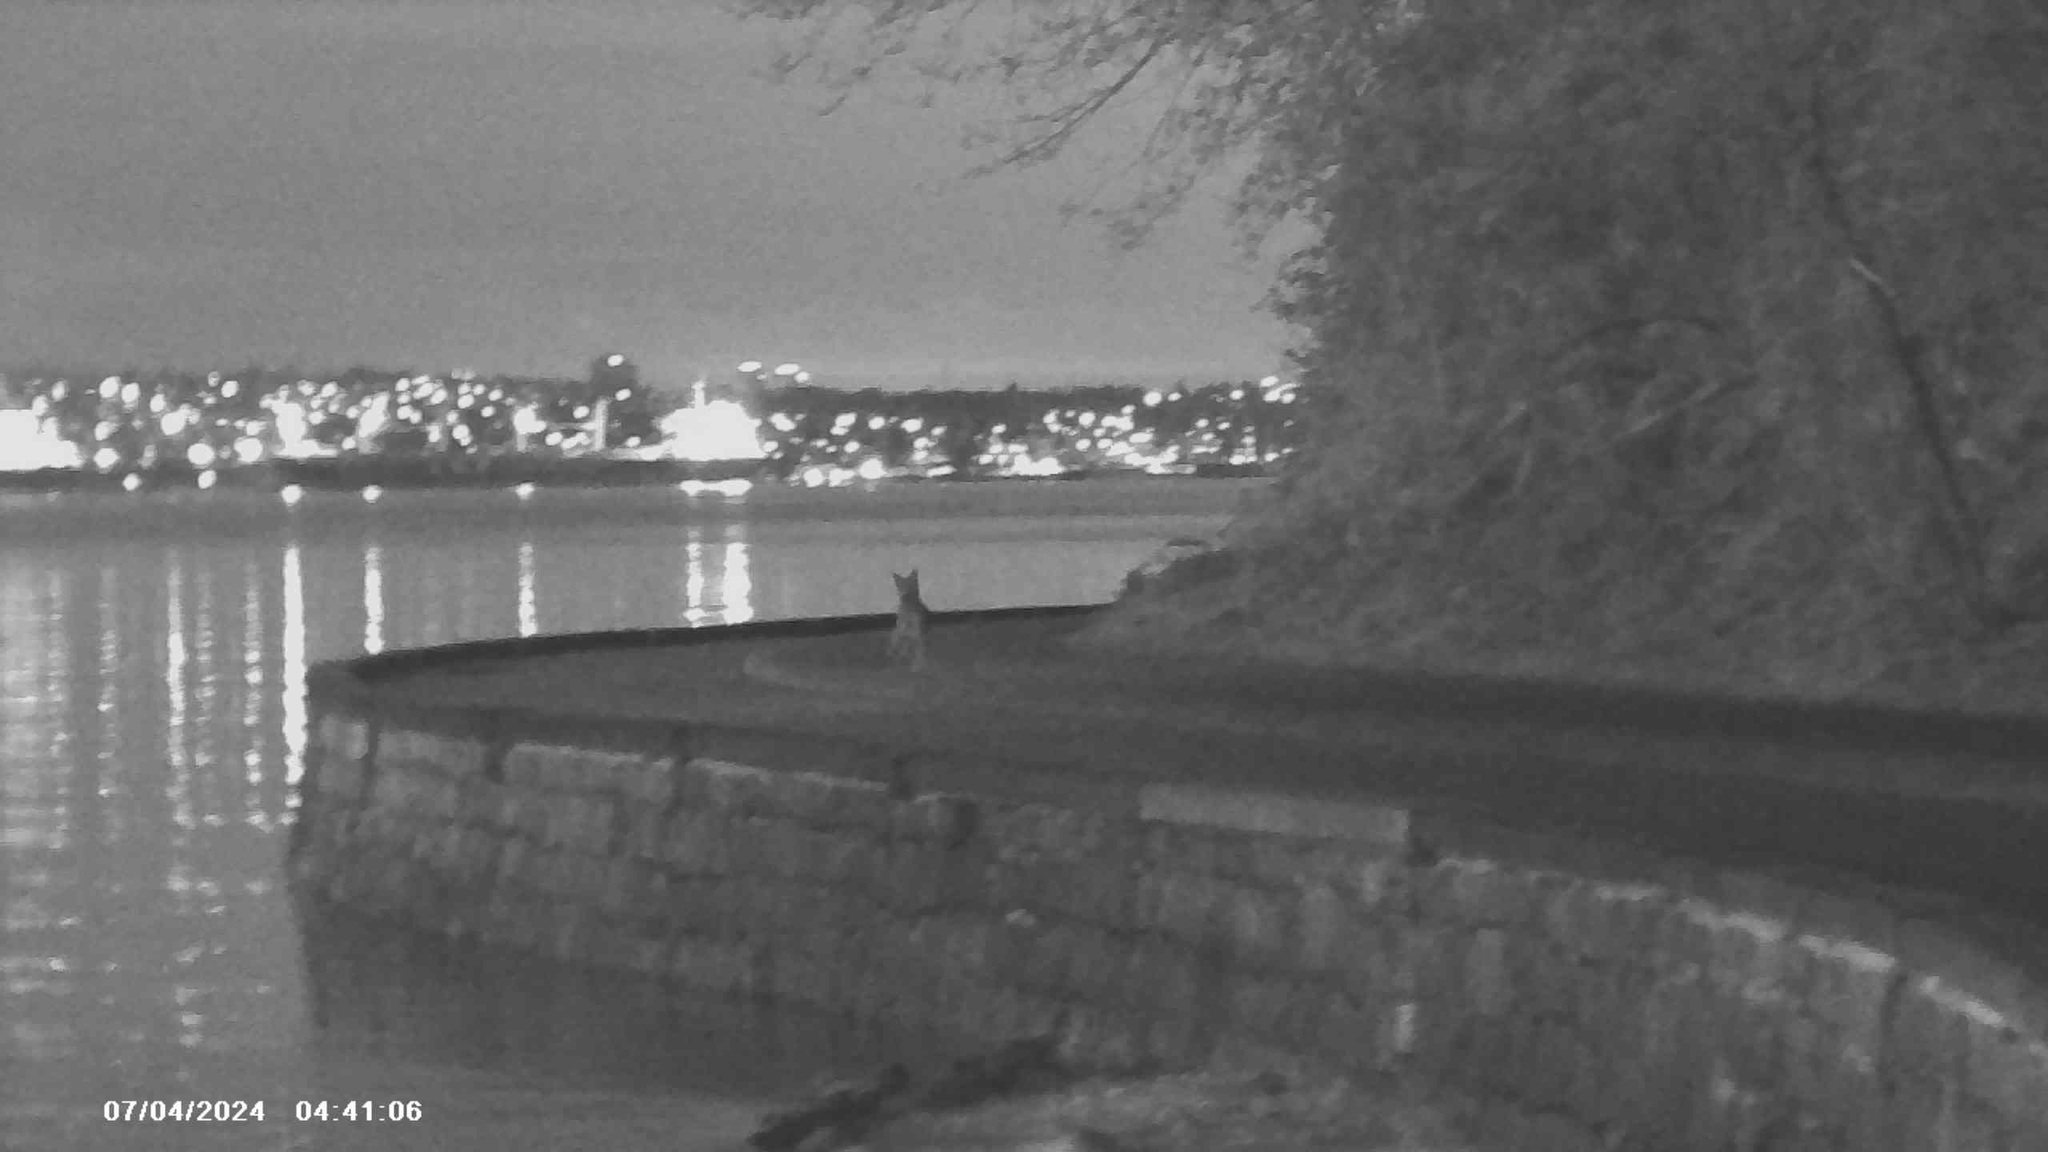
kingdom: Animalia
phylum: Chordata
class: Mammalia
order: Carnivora
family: Canidae
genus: Canis
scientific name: Canis latrans
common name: Coyote
